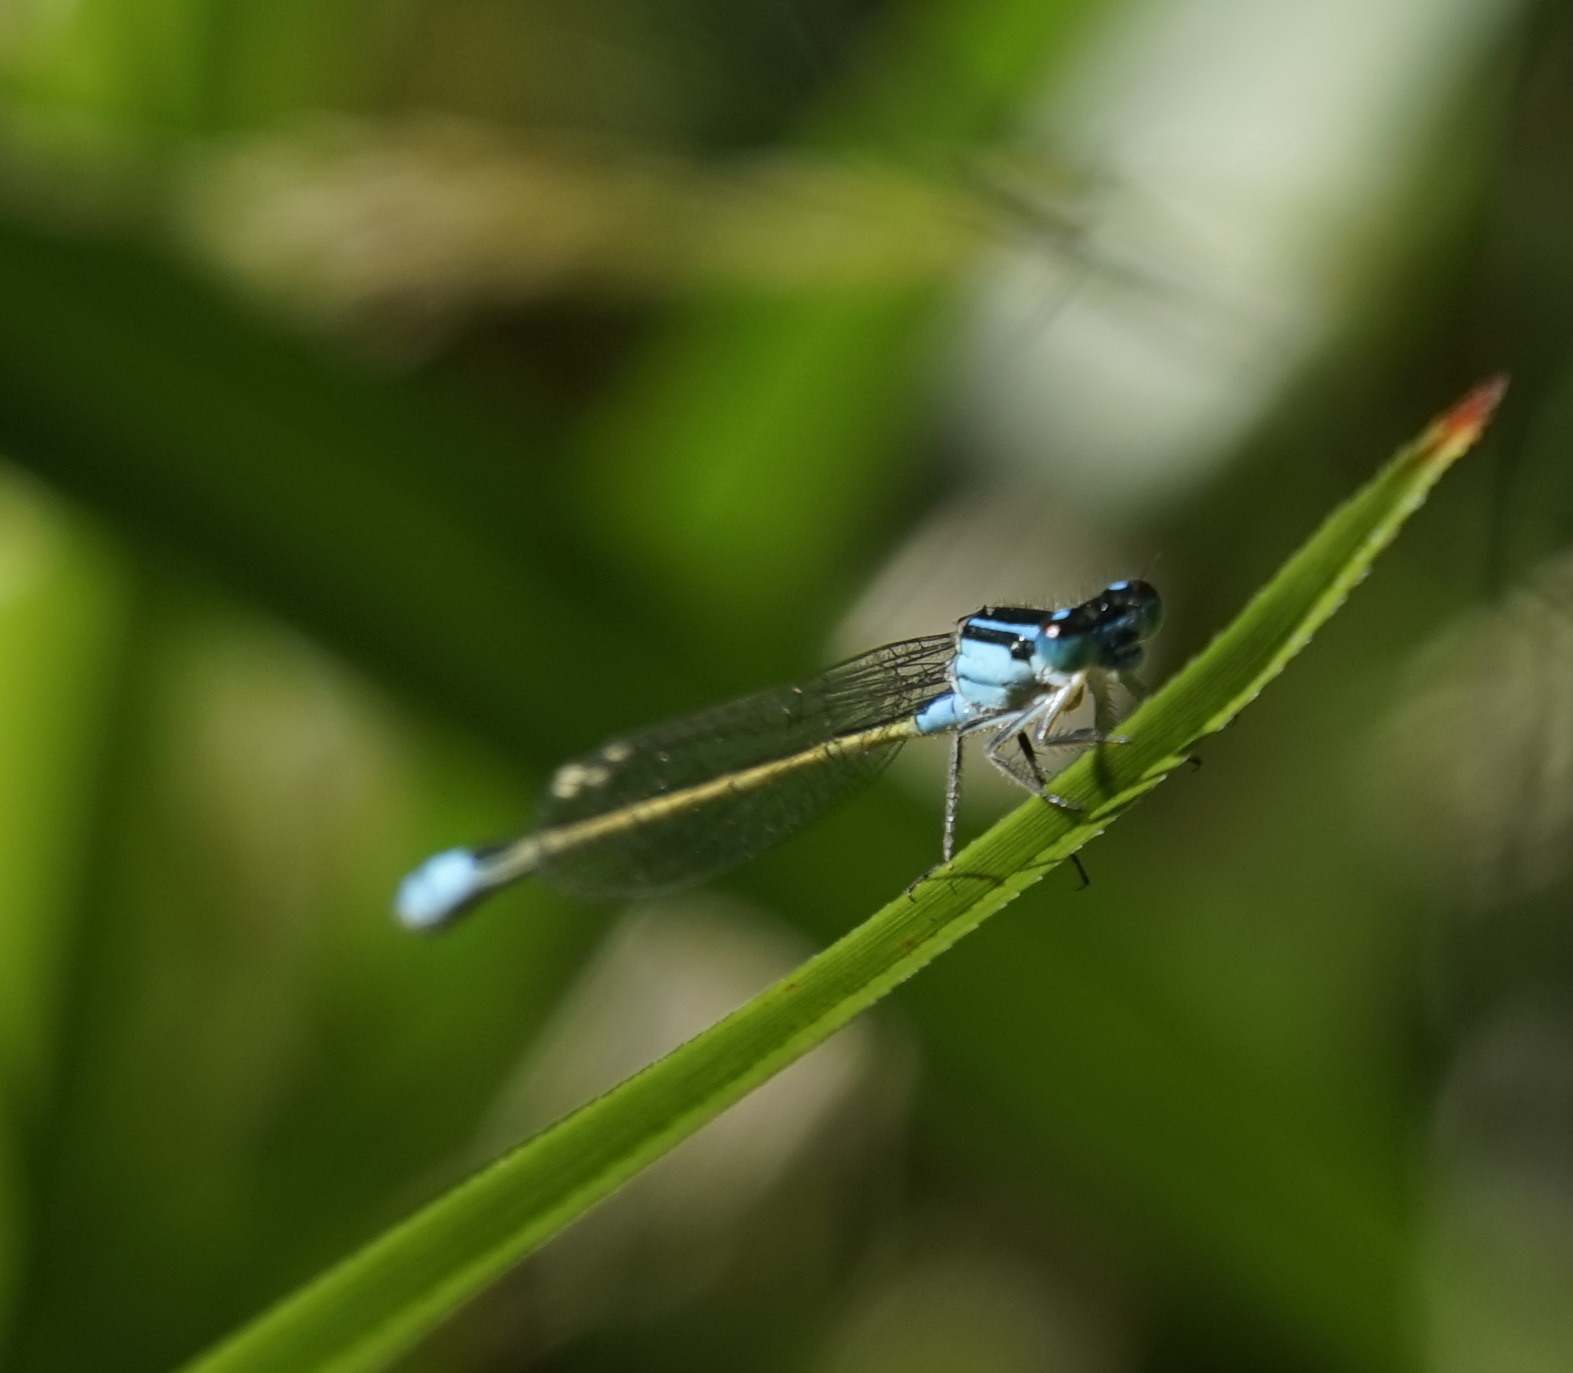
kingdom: Animalia
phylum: Arthropoda
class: Insecta
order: Odonata
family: Coenagrionidae
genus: Ischnura
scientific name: Ischnura heterosticta
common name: Common bluetail
